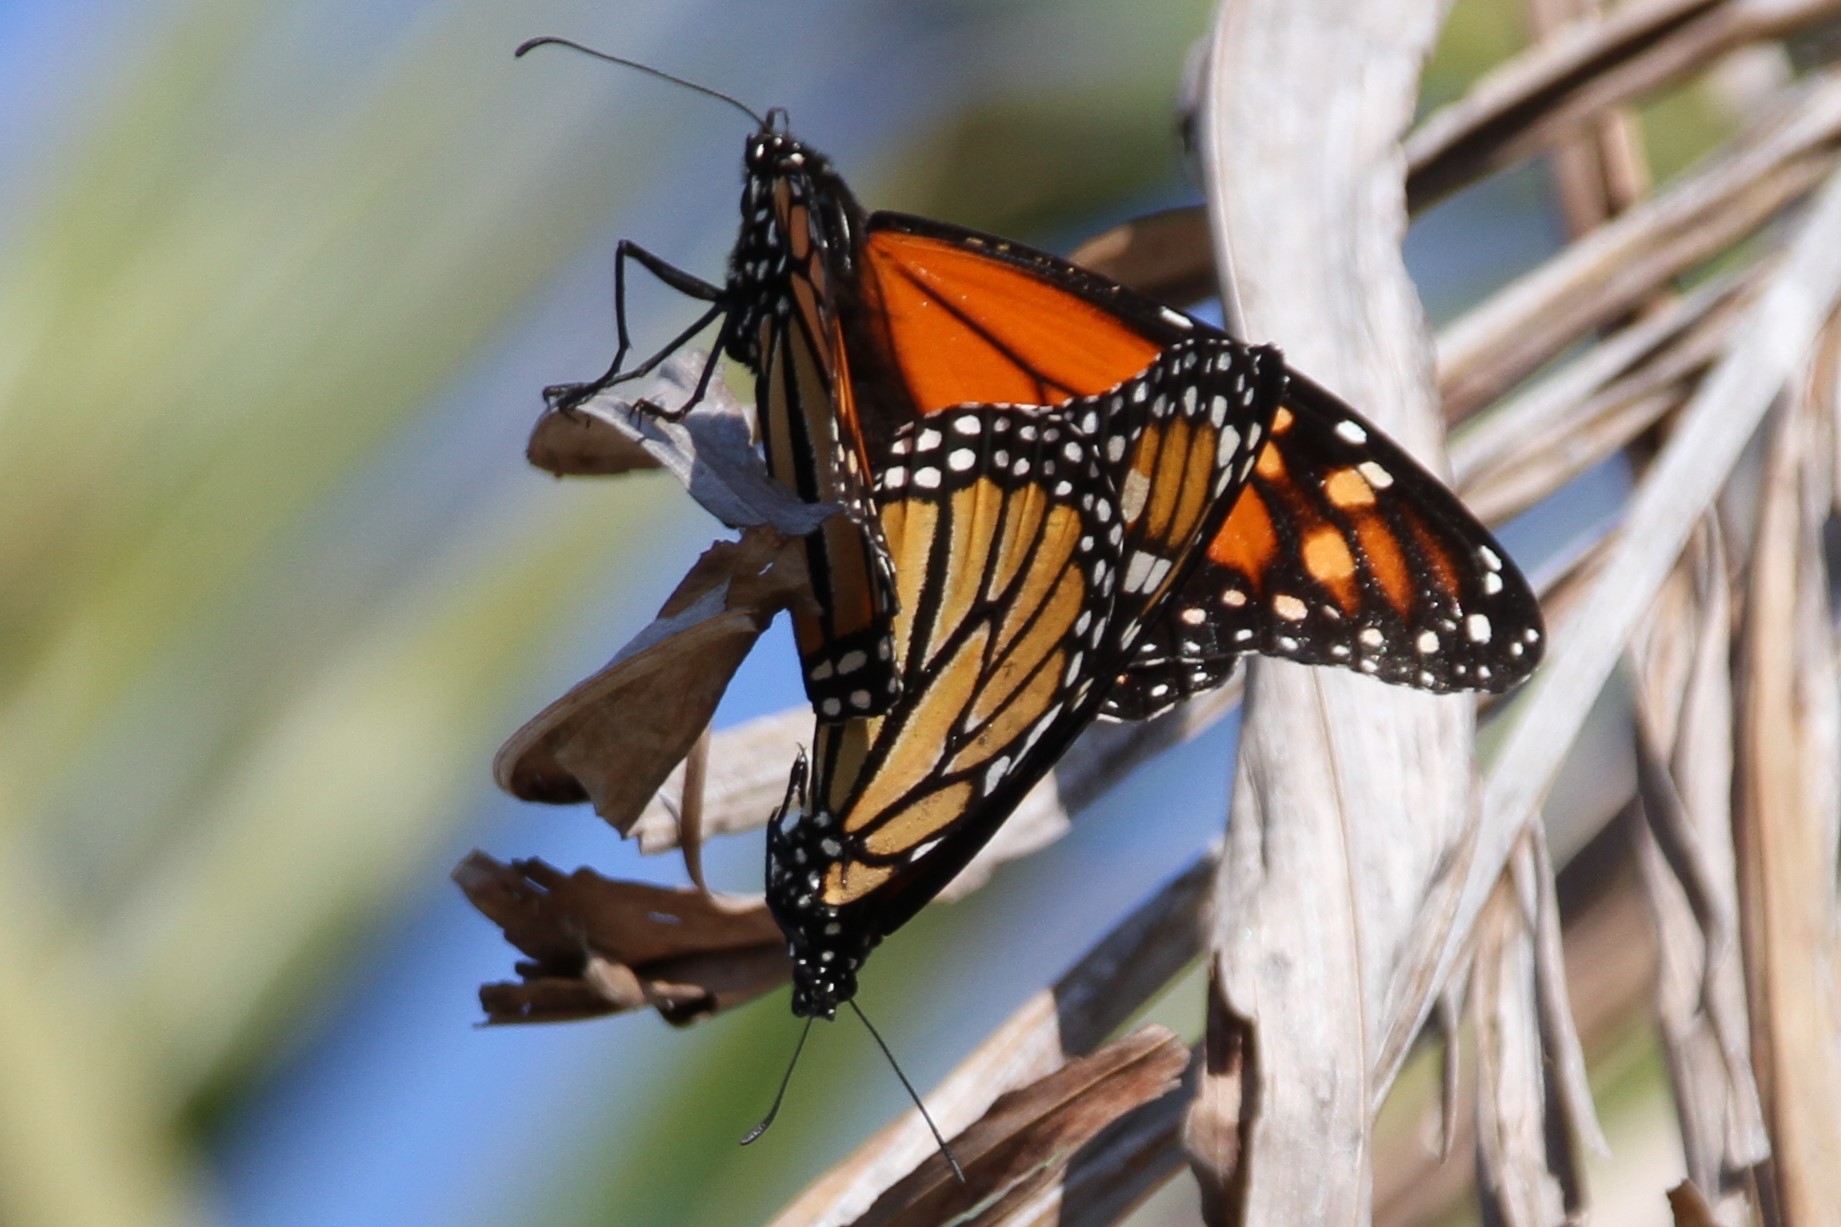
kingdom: Animalia
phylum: Arthropoda
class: Insecta
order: Lepidoptera
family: Nymphalidae
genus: Danaus
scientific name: Danaus plexippus
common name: Monarch
